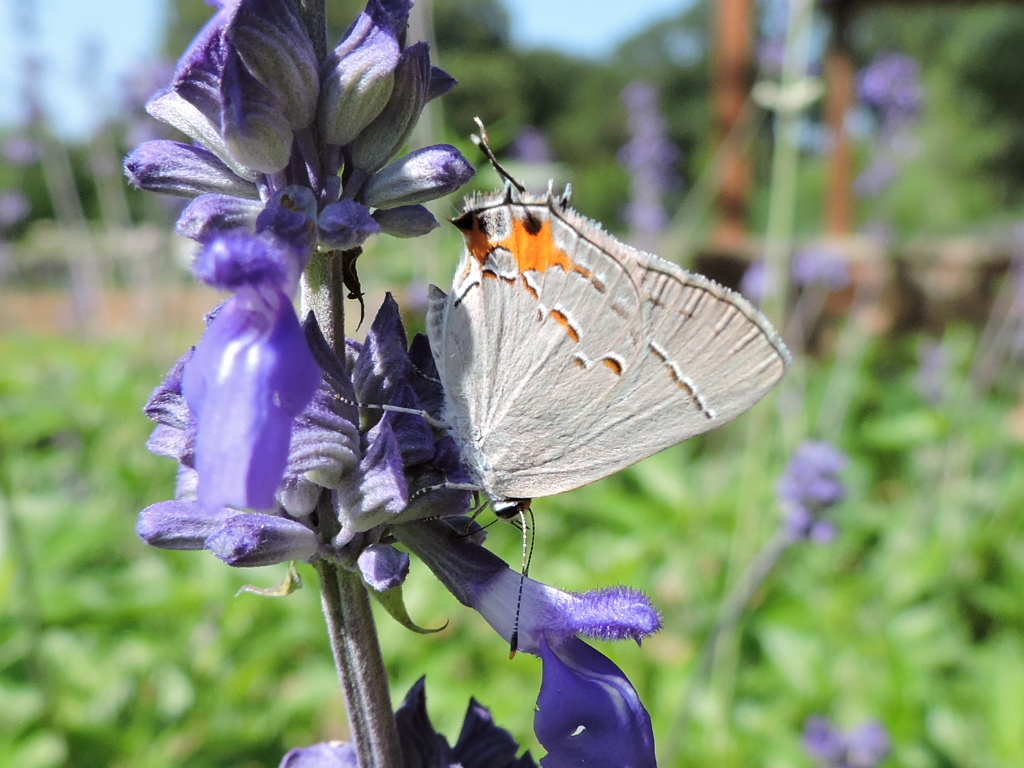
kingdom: Animalia
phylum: Arthropoda
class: Insecta
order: Lepidoptera
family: Lycaenidae
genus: Strymon
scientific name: Strymon melinus
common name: Gray hairstreak
